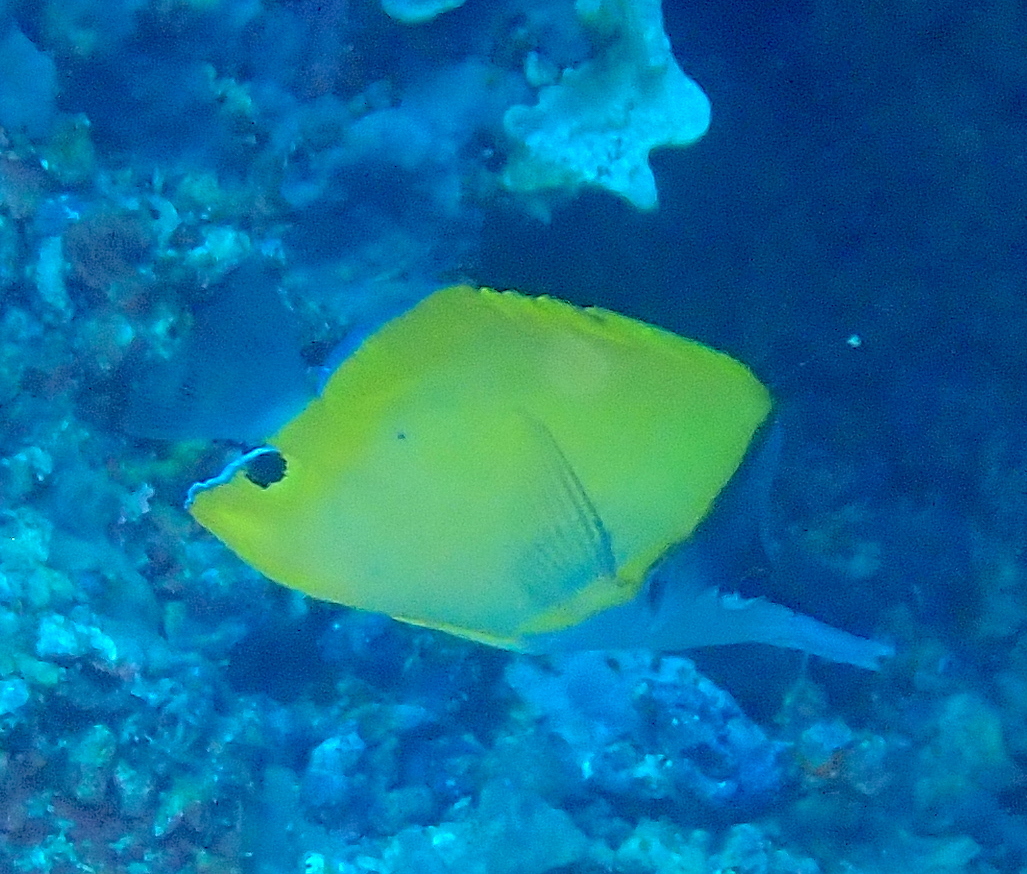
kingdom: Animalia
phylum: Chordata
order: Perciformes
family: Chaetodontidae
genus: Forcipiger
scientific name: Forcipiger flavissimus
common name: Forcepsfish
